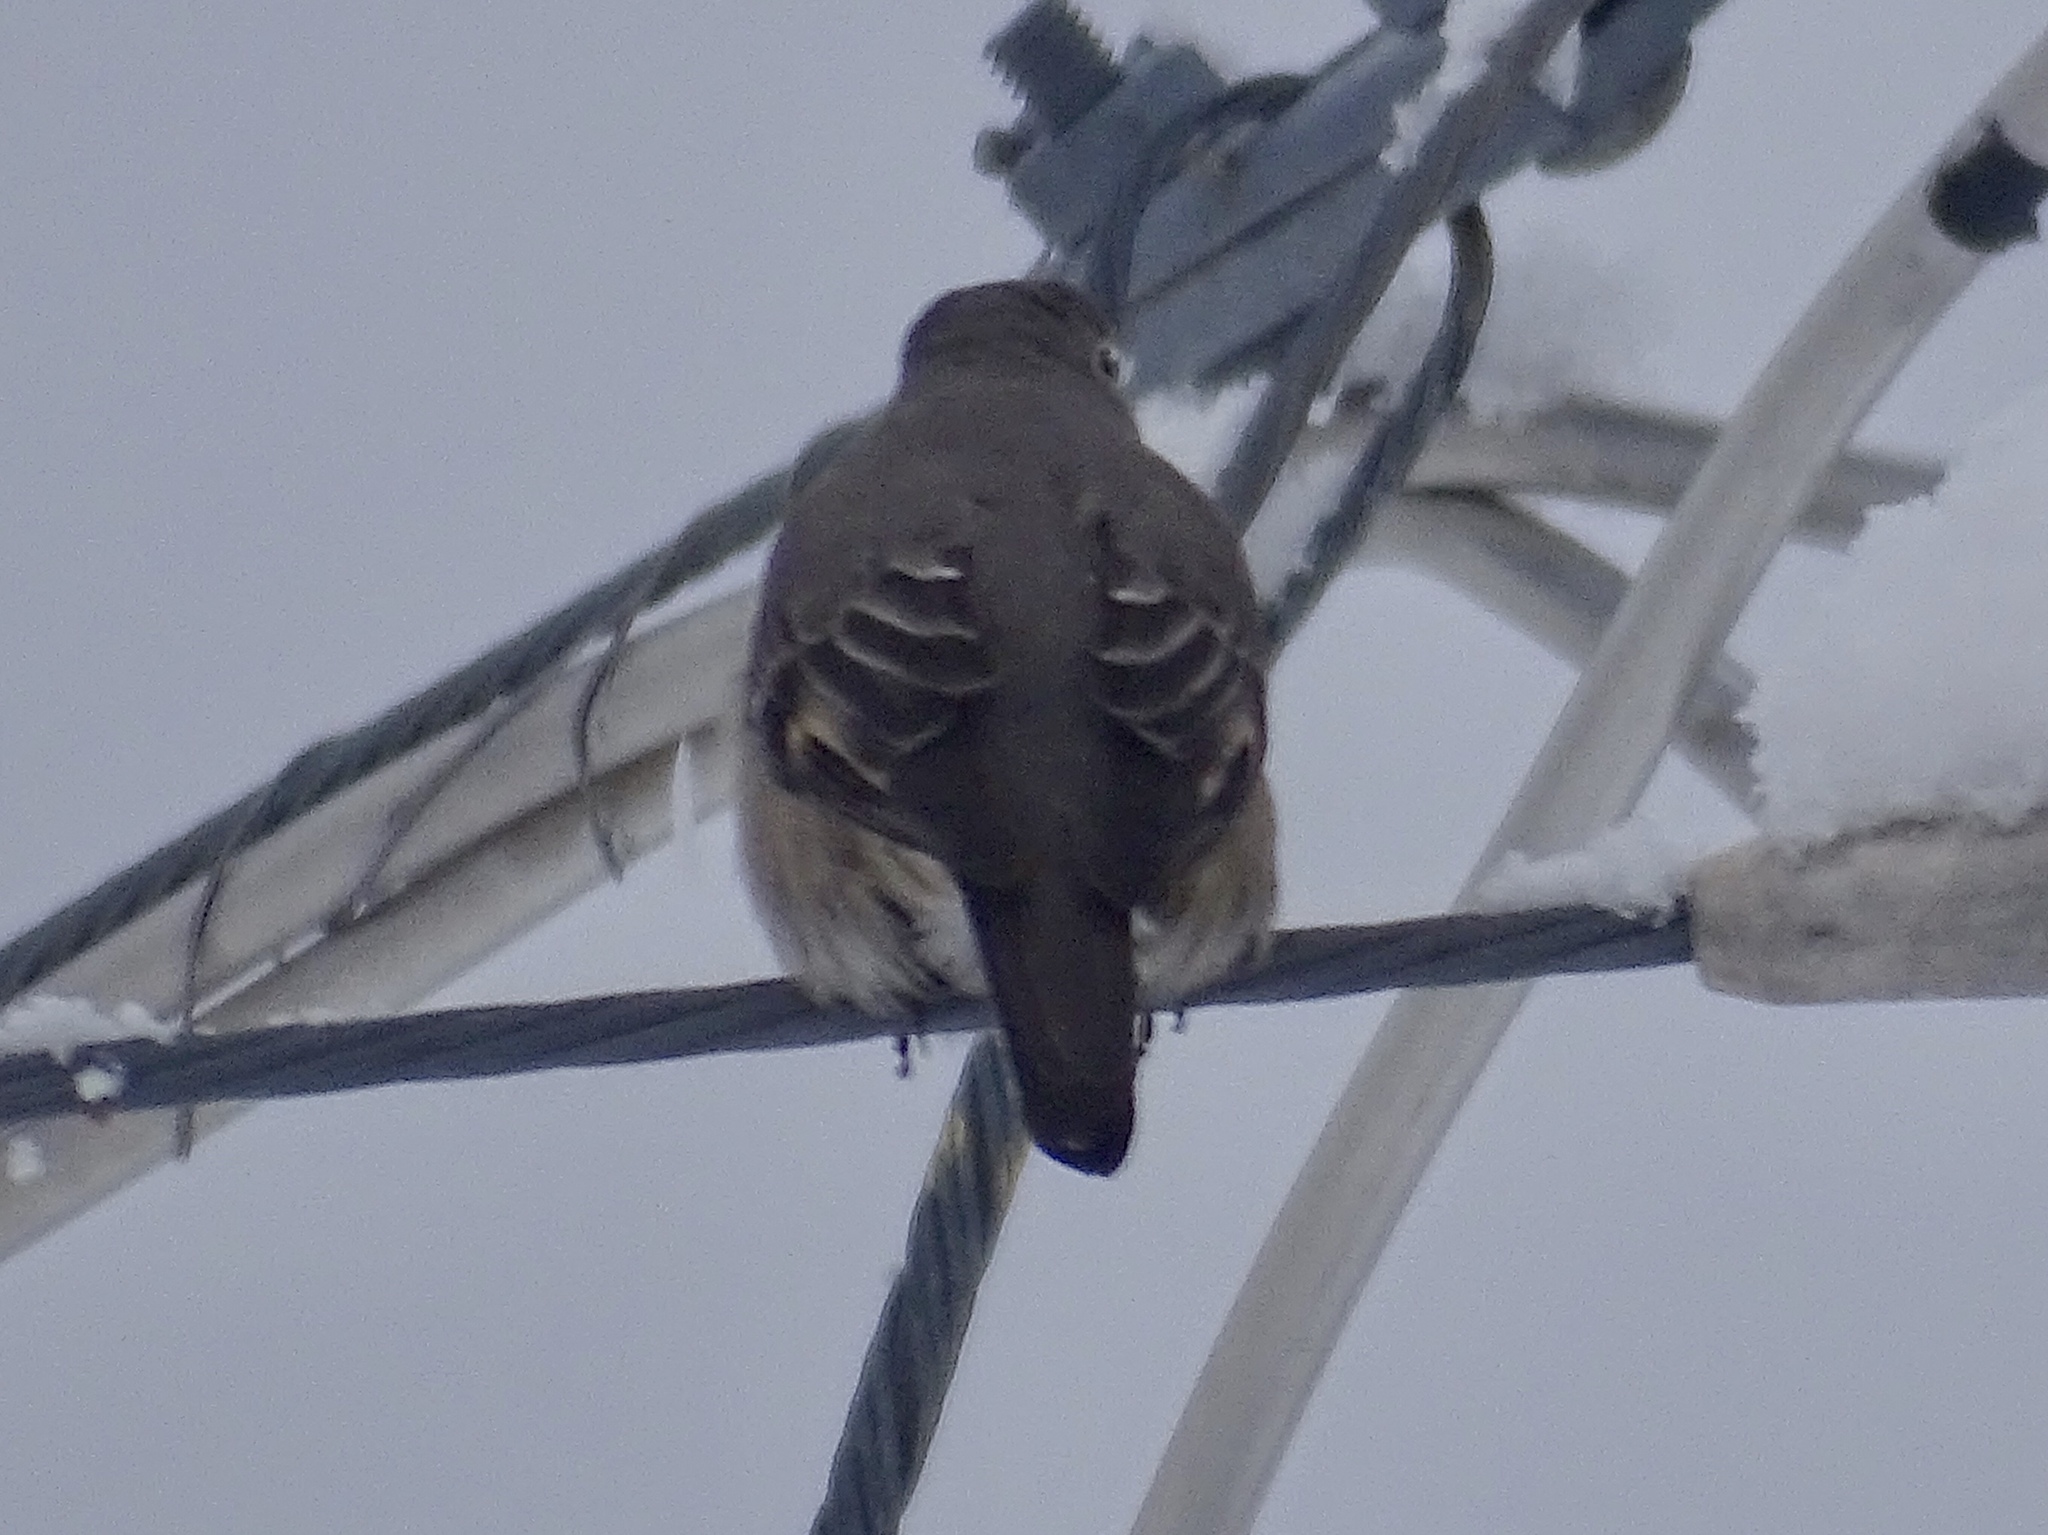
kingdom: Animalia
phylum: Chordata
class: Aves
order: Passeriformes
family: Turdidae
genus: Myadestes
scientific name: Myadestes townsendi
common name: Townsend's solitaire
